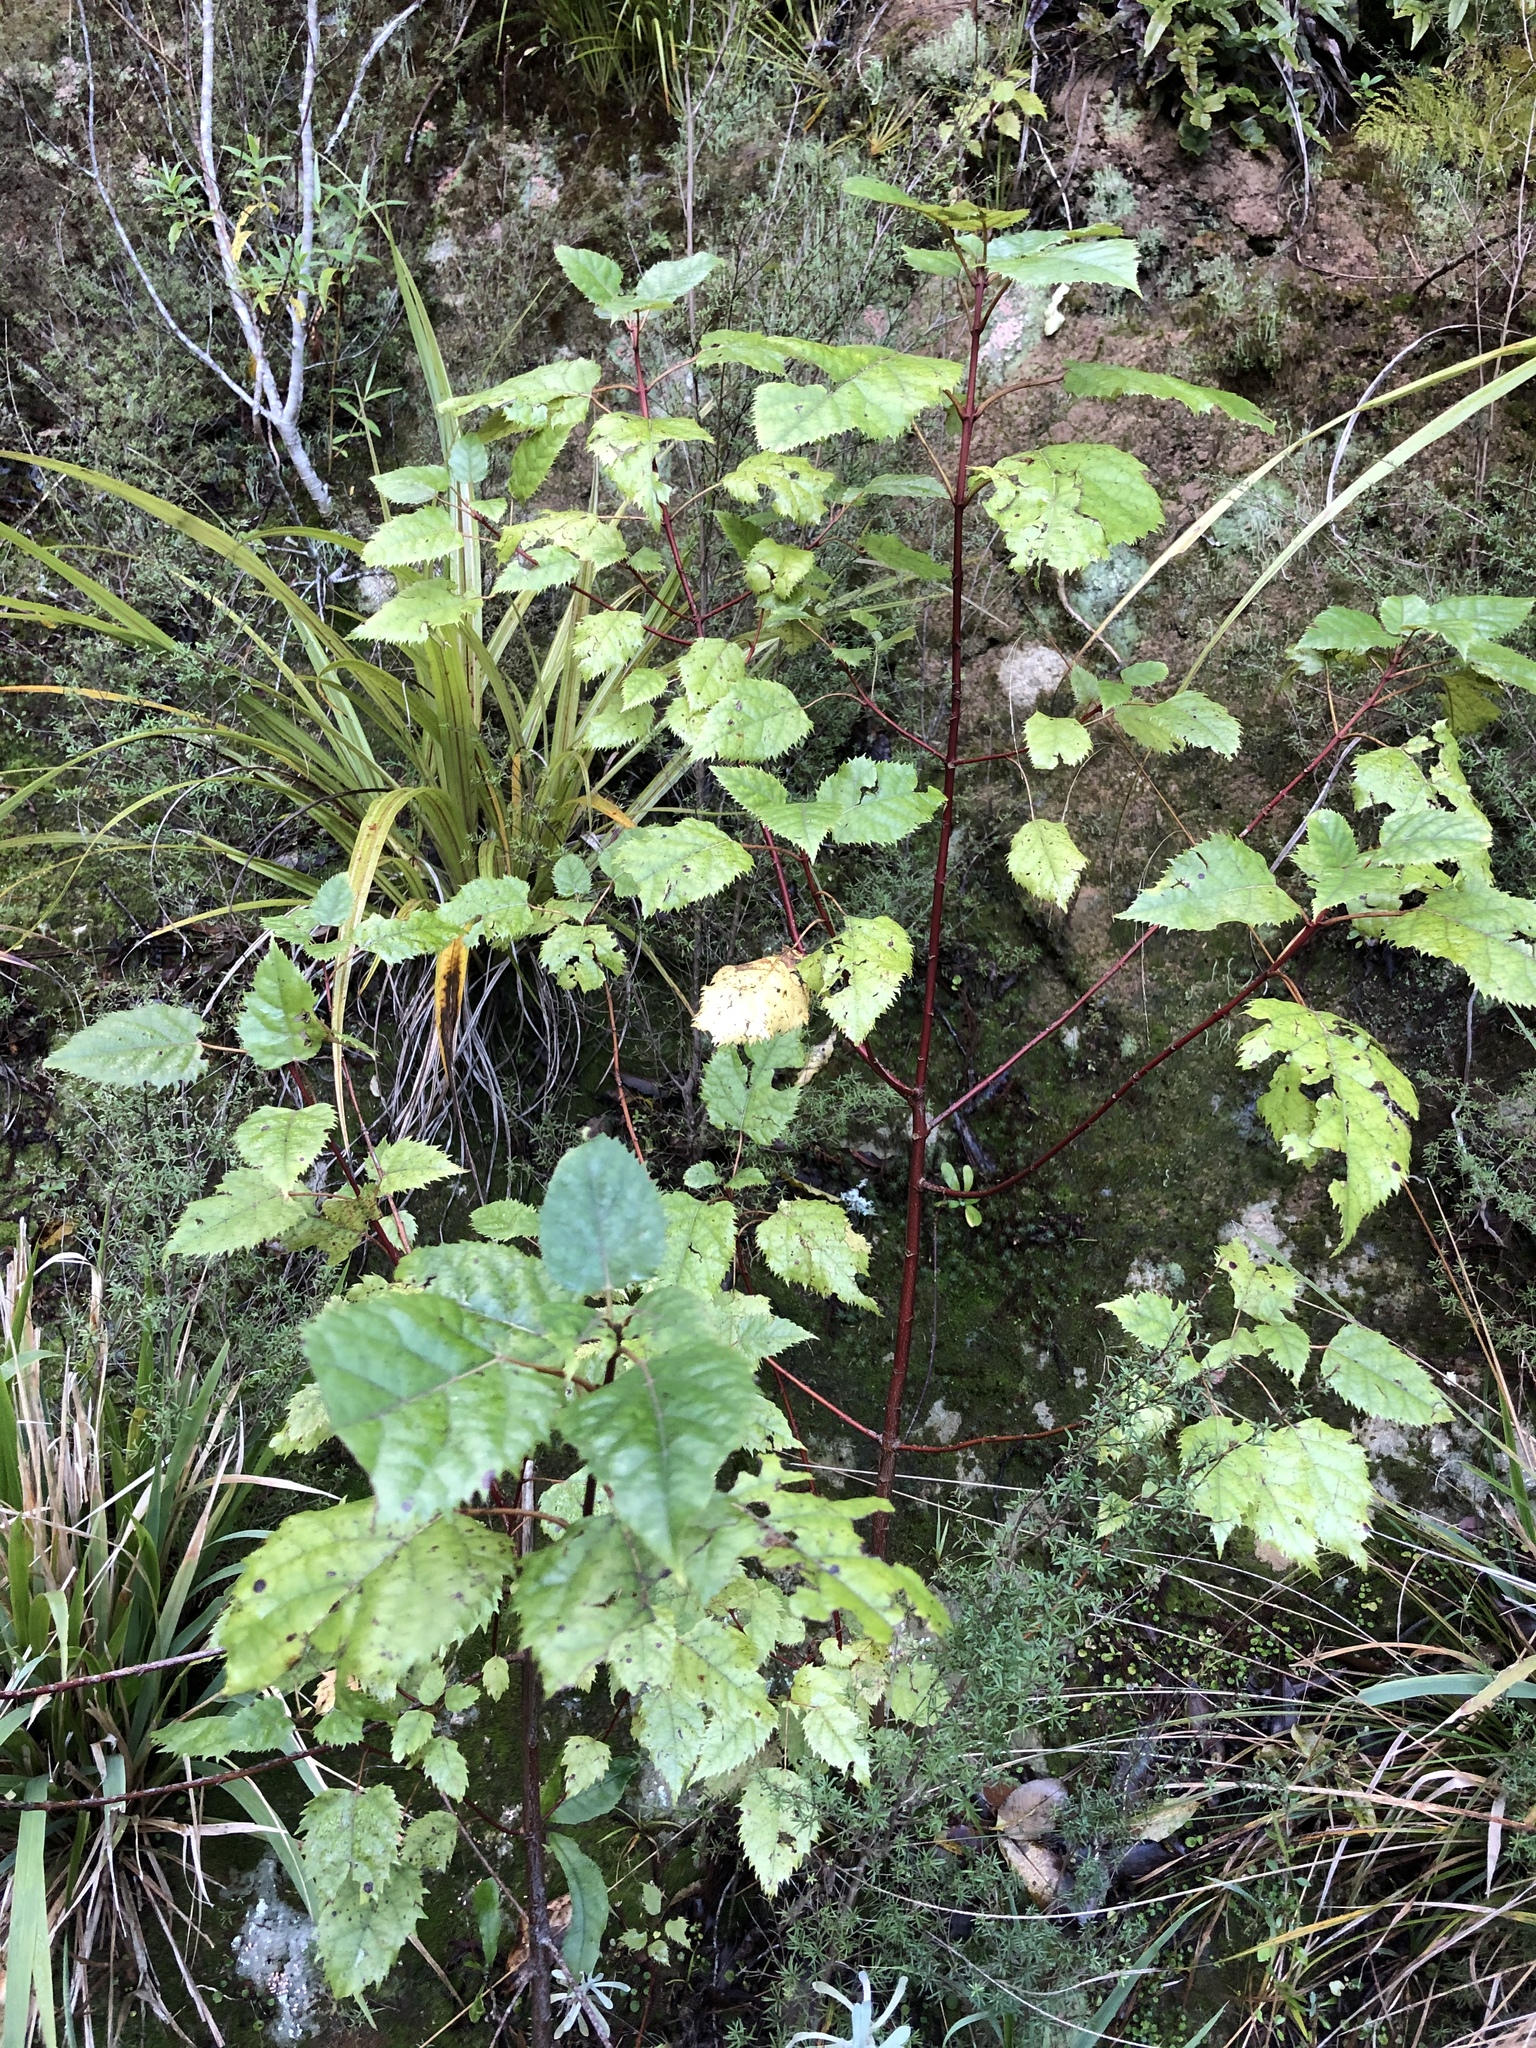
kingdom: Plantae
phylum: Tracheophyta
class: Magnoliopsida
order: Oxalidales
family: Elaeocarpaceae
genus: Aristotelia
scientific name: Aristotelia serrata
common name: New zealand wineberry
